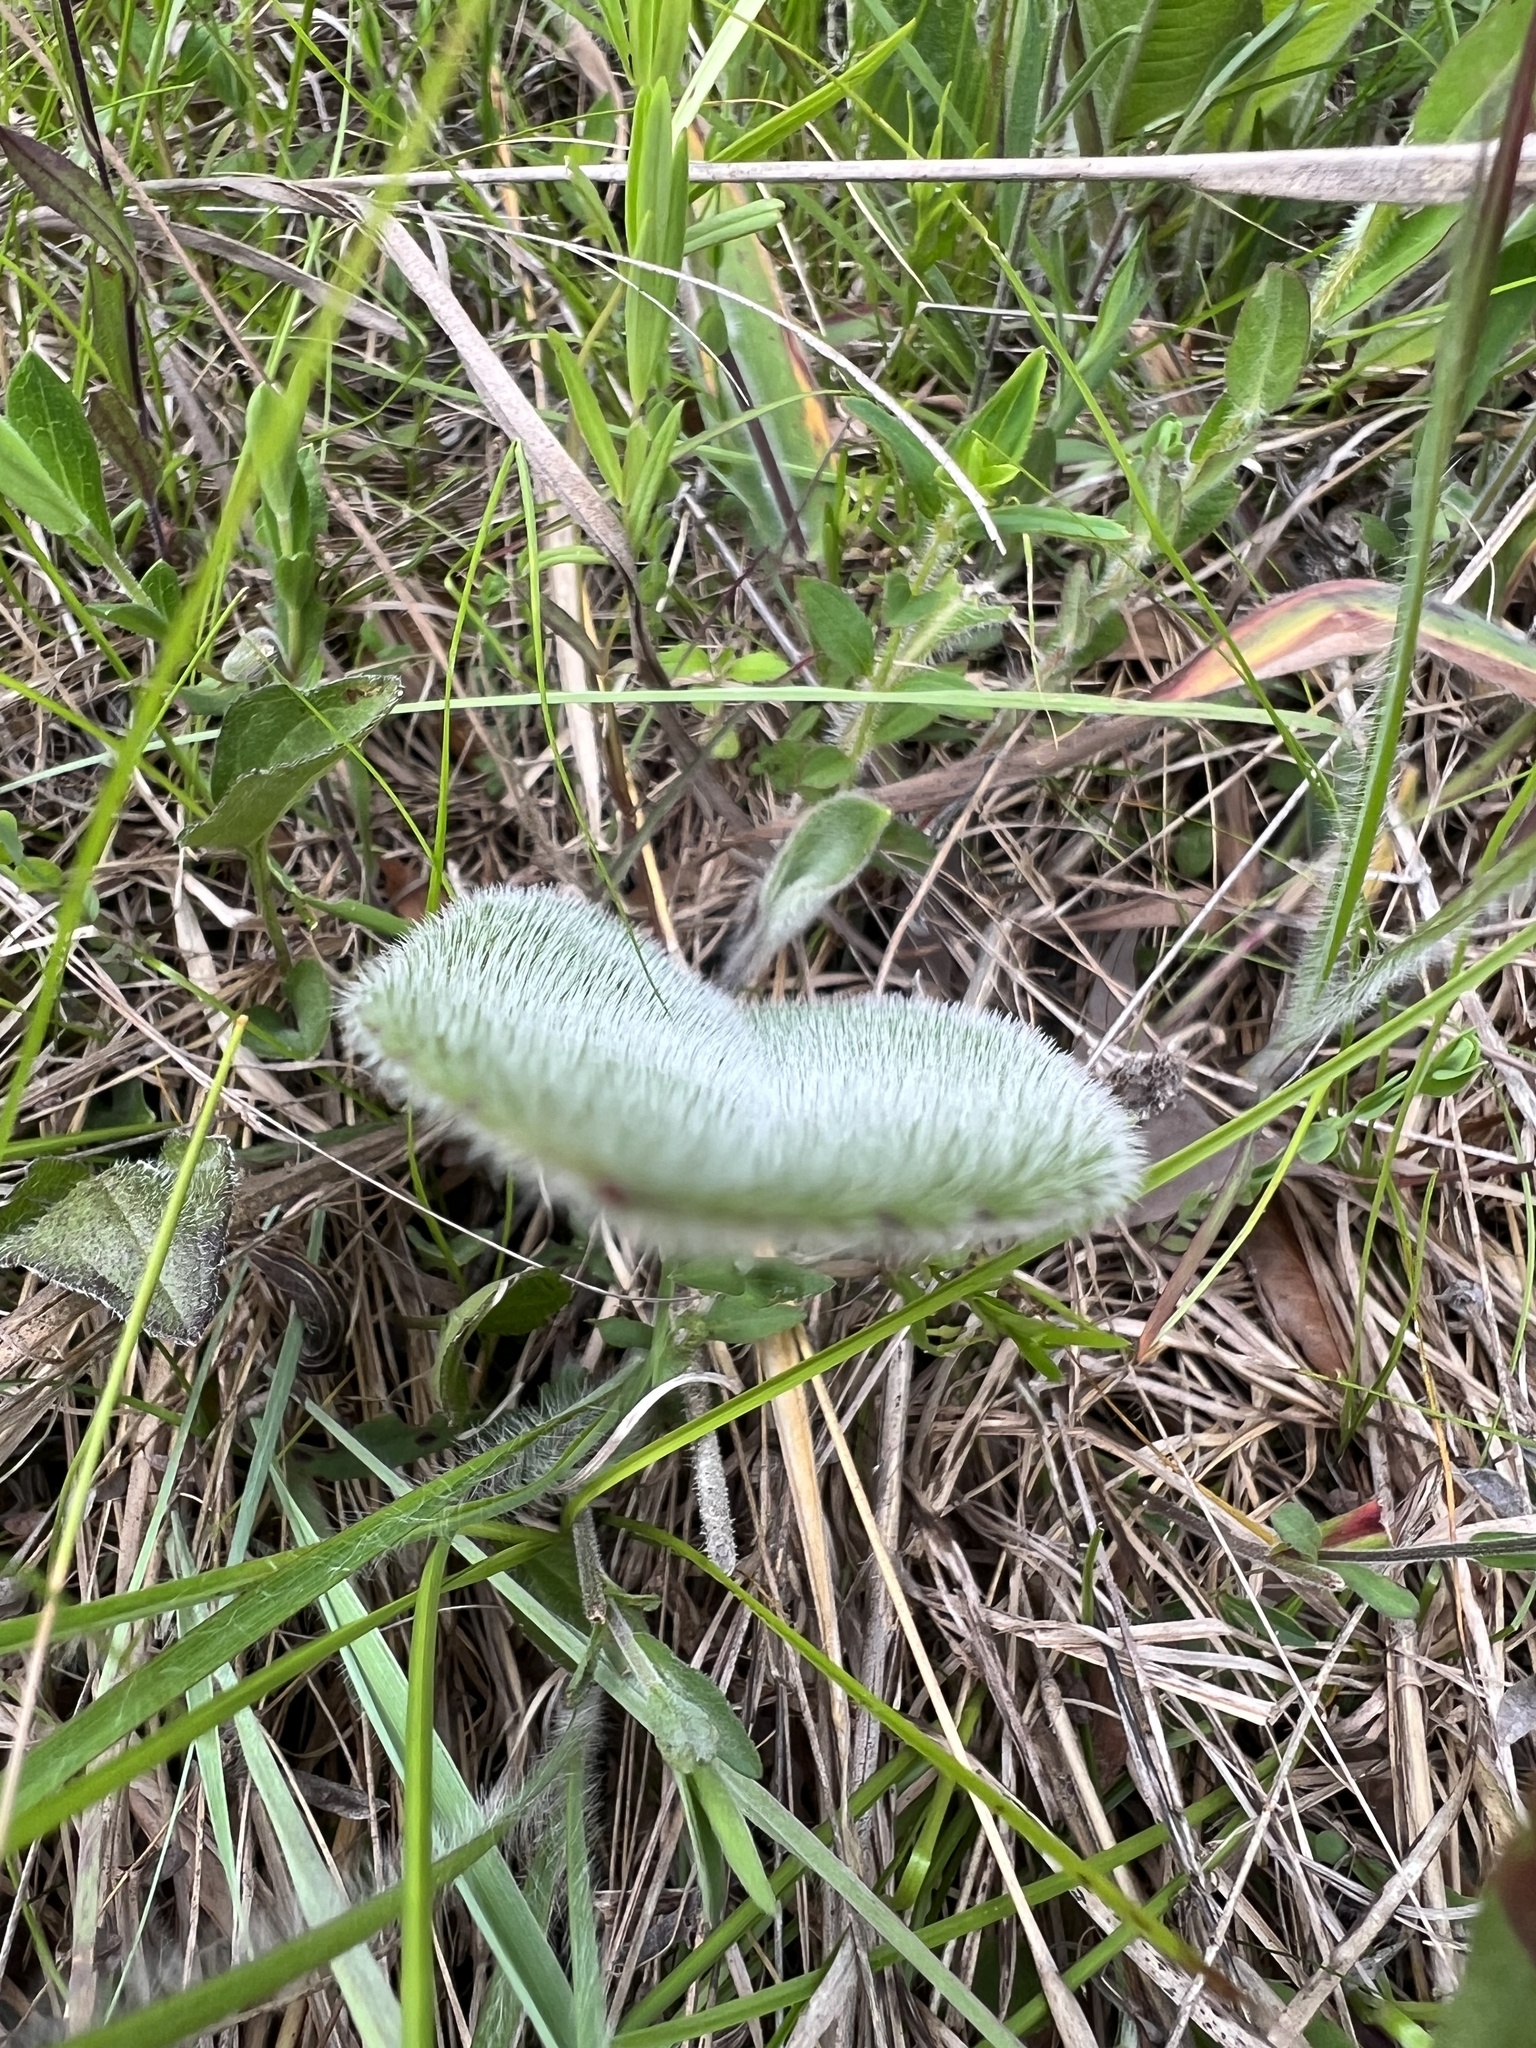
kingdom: Plantae
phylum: Tracheophyta
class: Magnoliopsida
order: Asterales
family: Asteraceae
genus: Silphium
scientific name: Silphium mohrii
